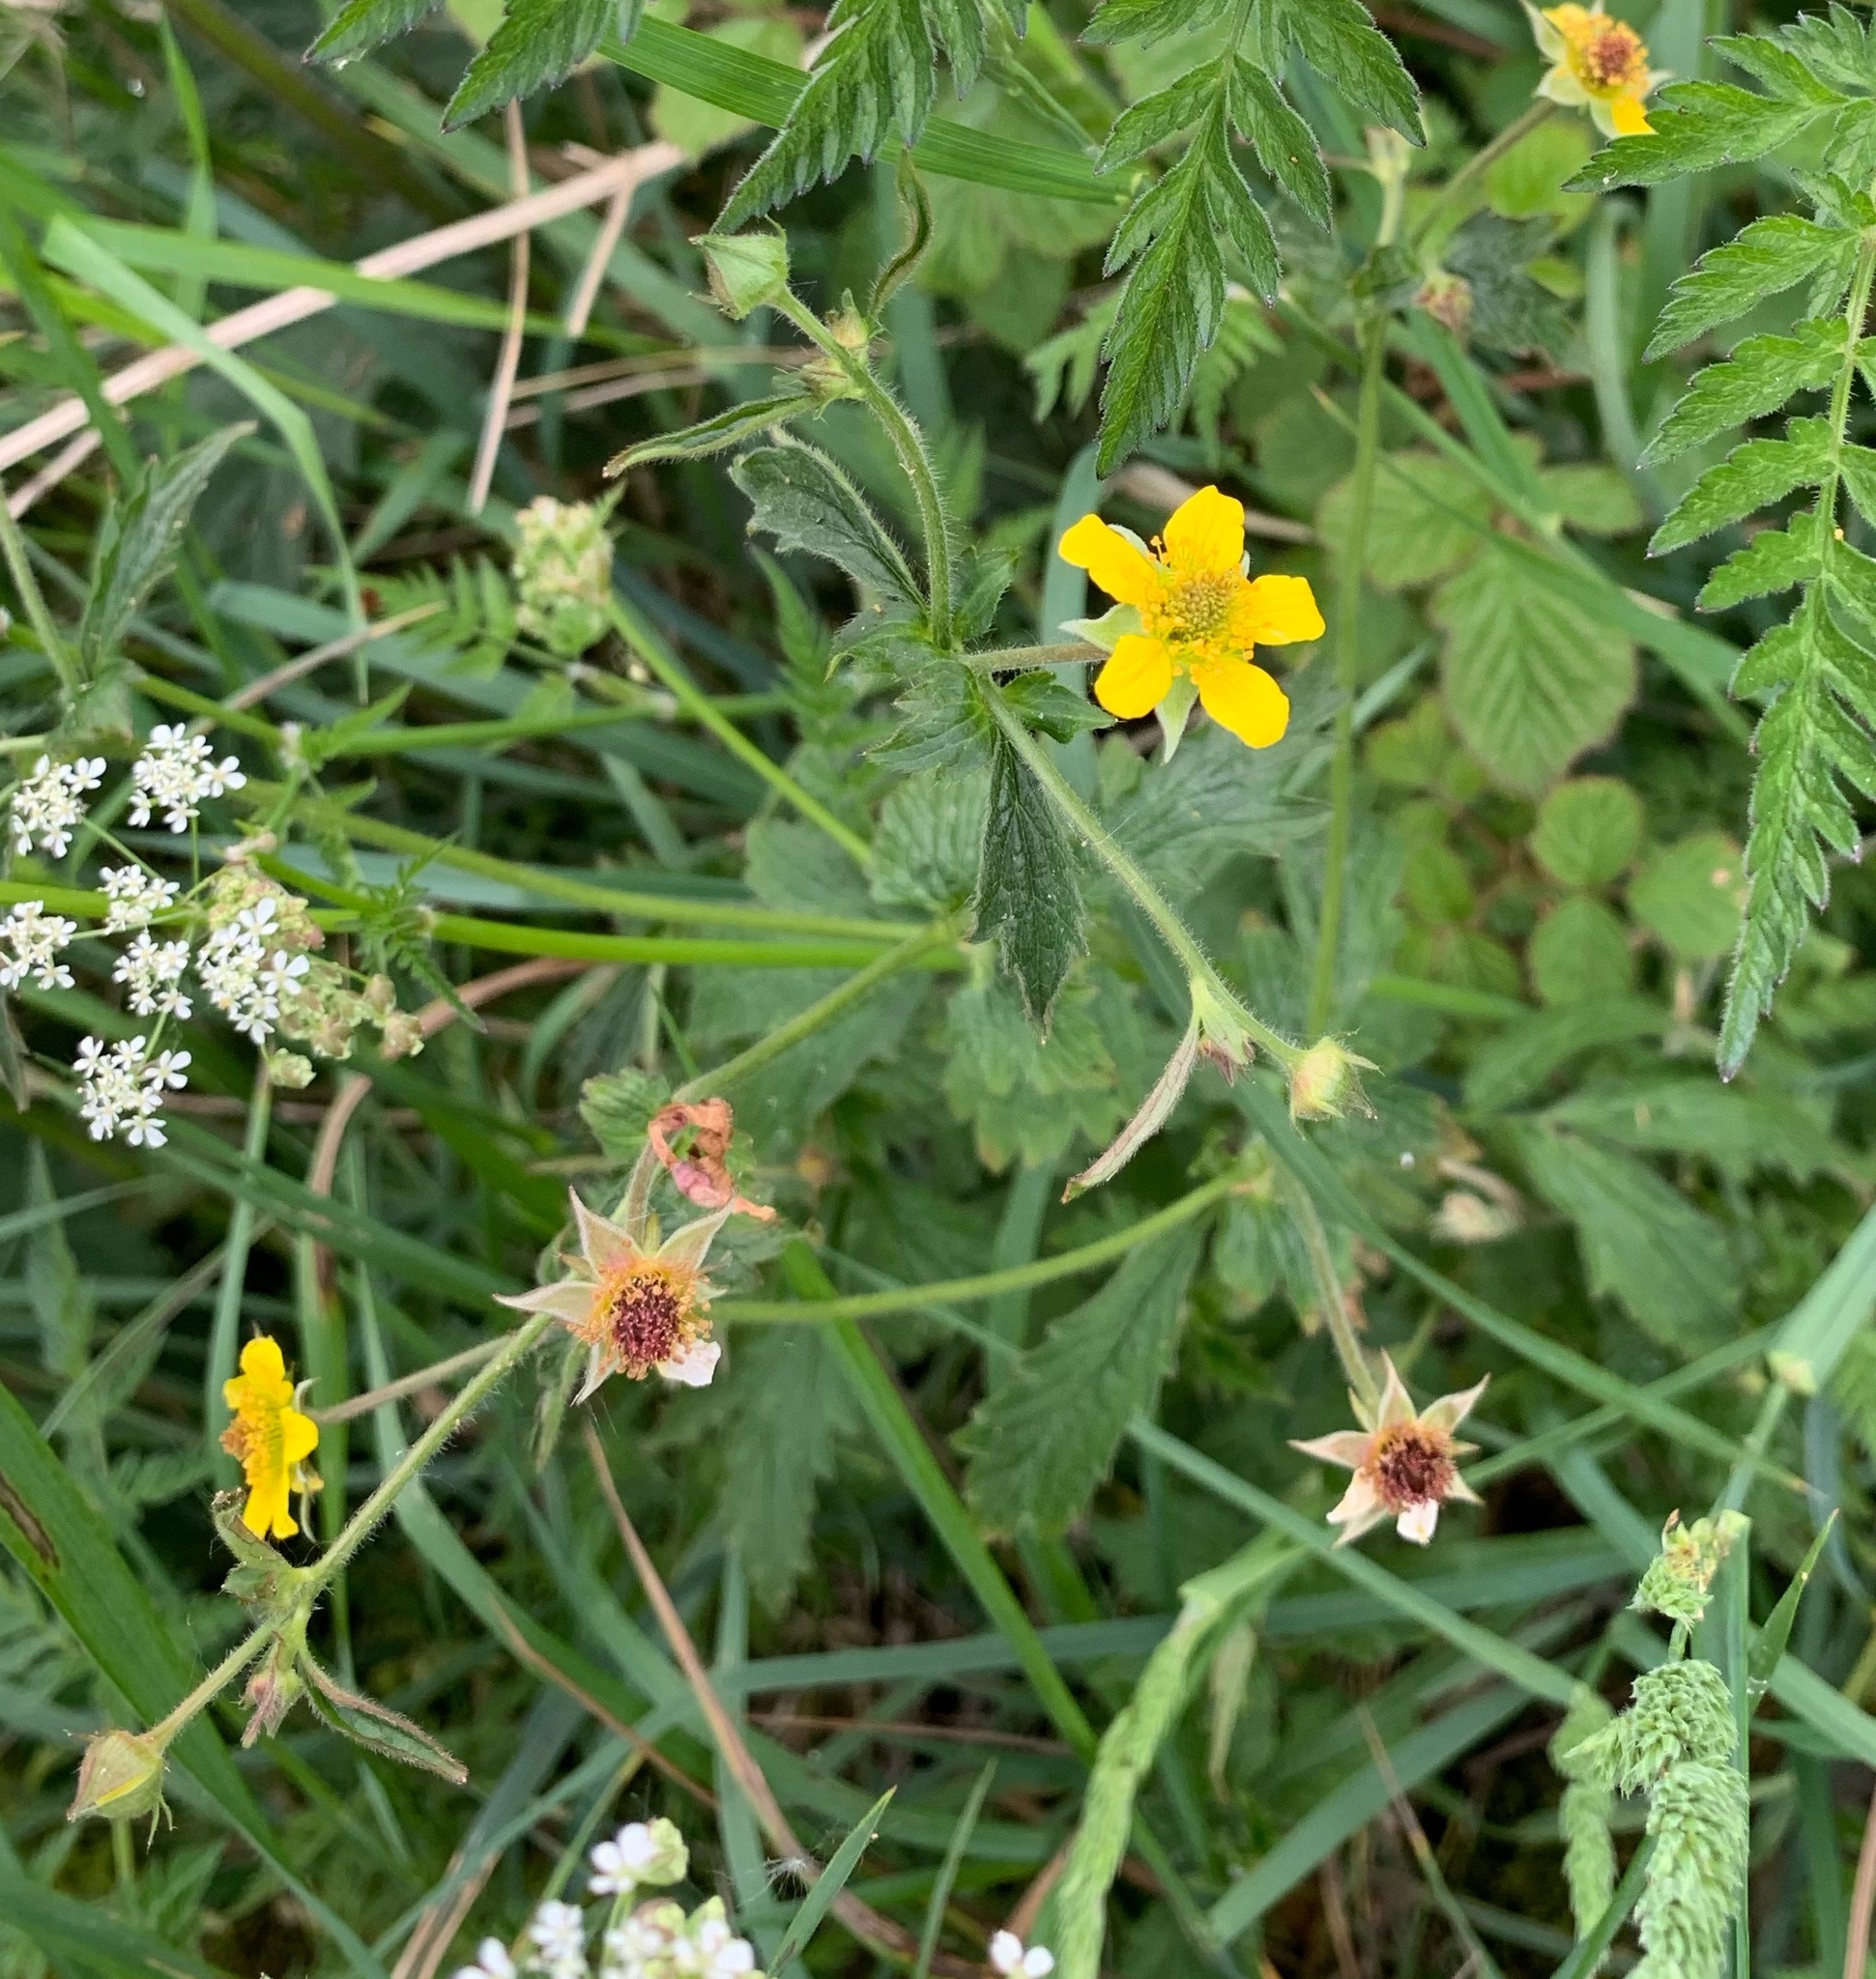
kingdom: Plantae
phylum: Tracheophyta
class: Magnoliopsida
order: Rosales
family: Rosaceae
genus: Geum
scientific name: Geum urbanum
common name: Wood avens
